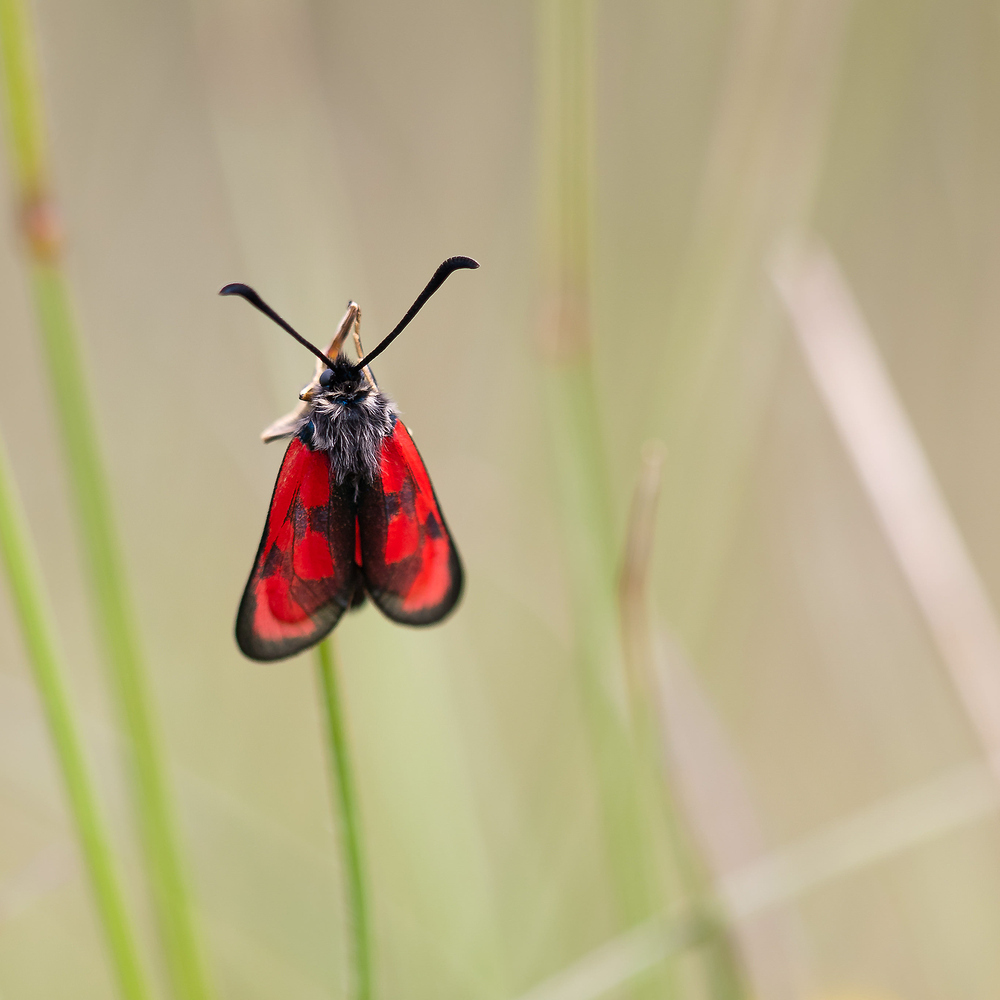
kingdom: Animalia
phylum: Arthropoda
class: Insecta
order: Lepidoptera
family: Zygaenidae
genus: Zygaena
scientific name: Zygaena loti
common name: Slender scotch burnet
